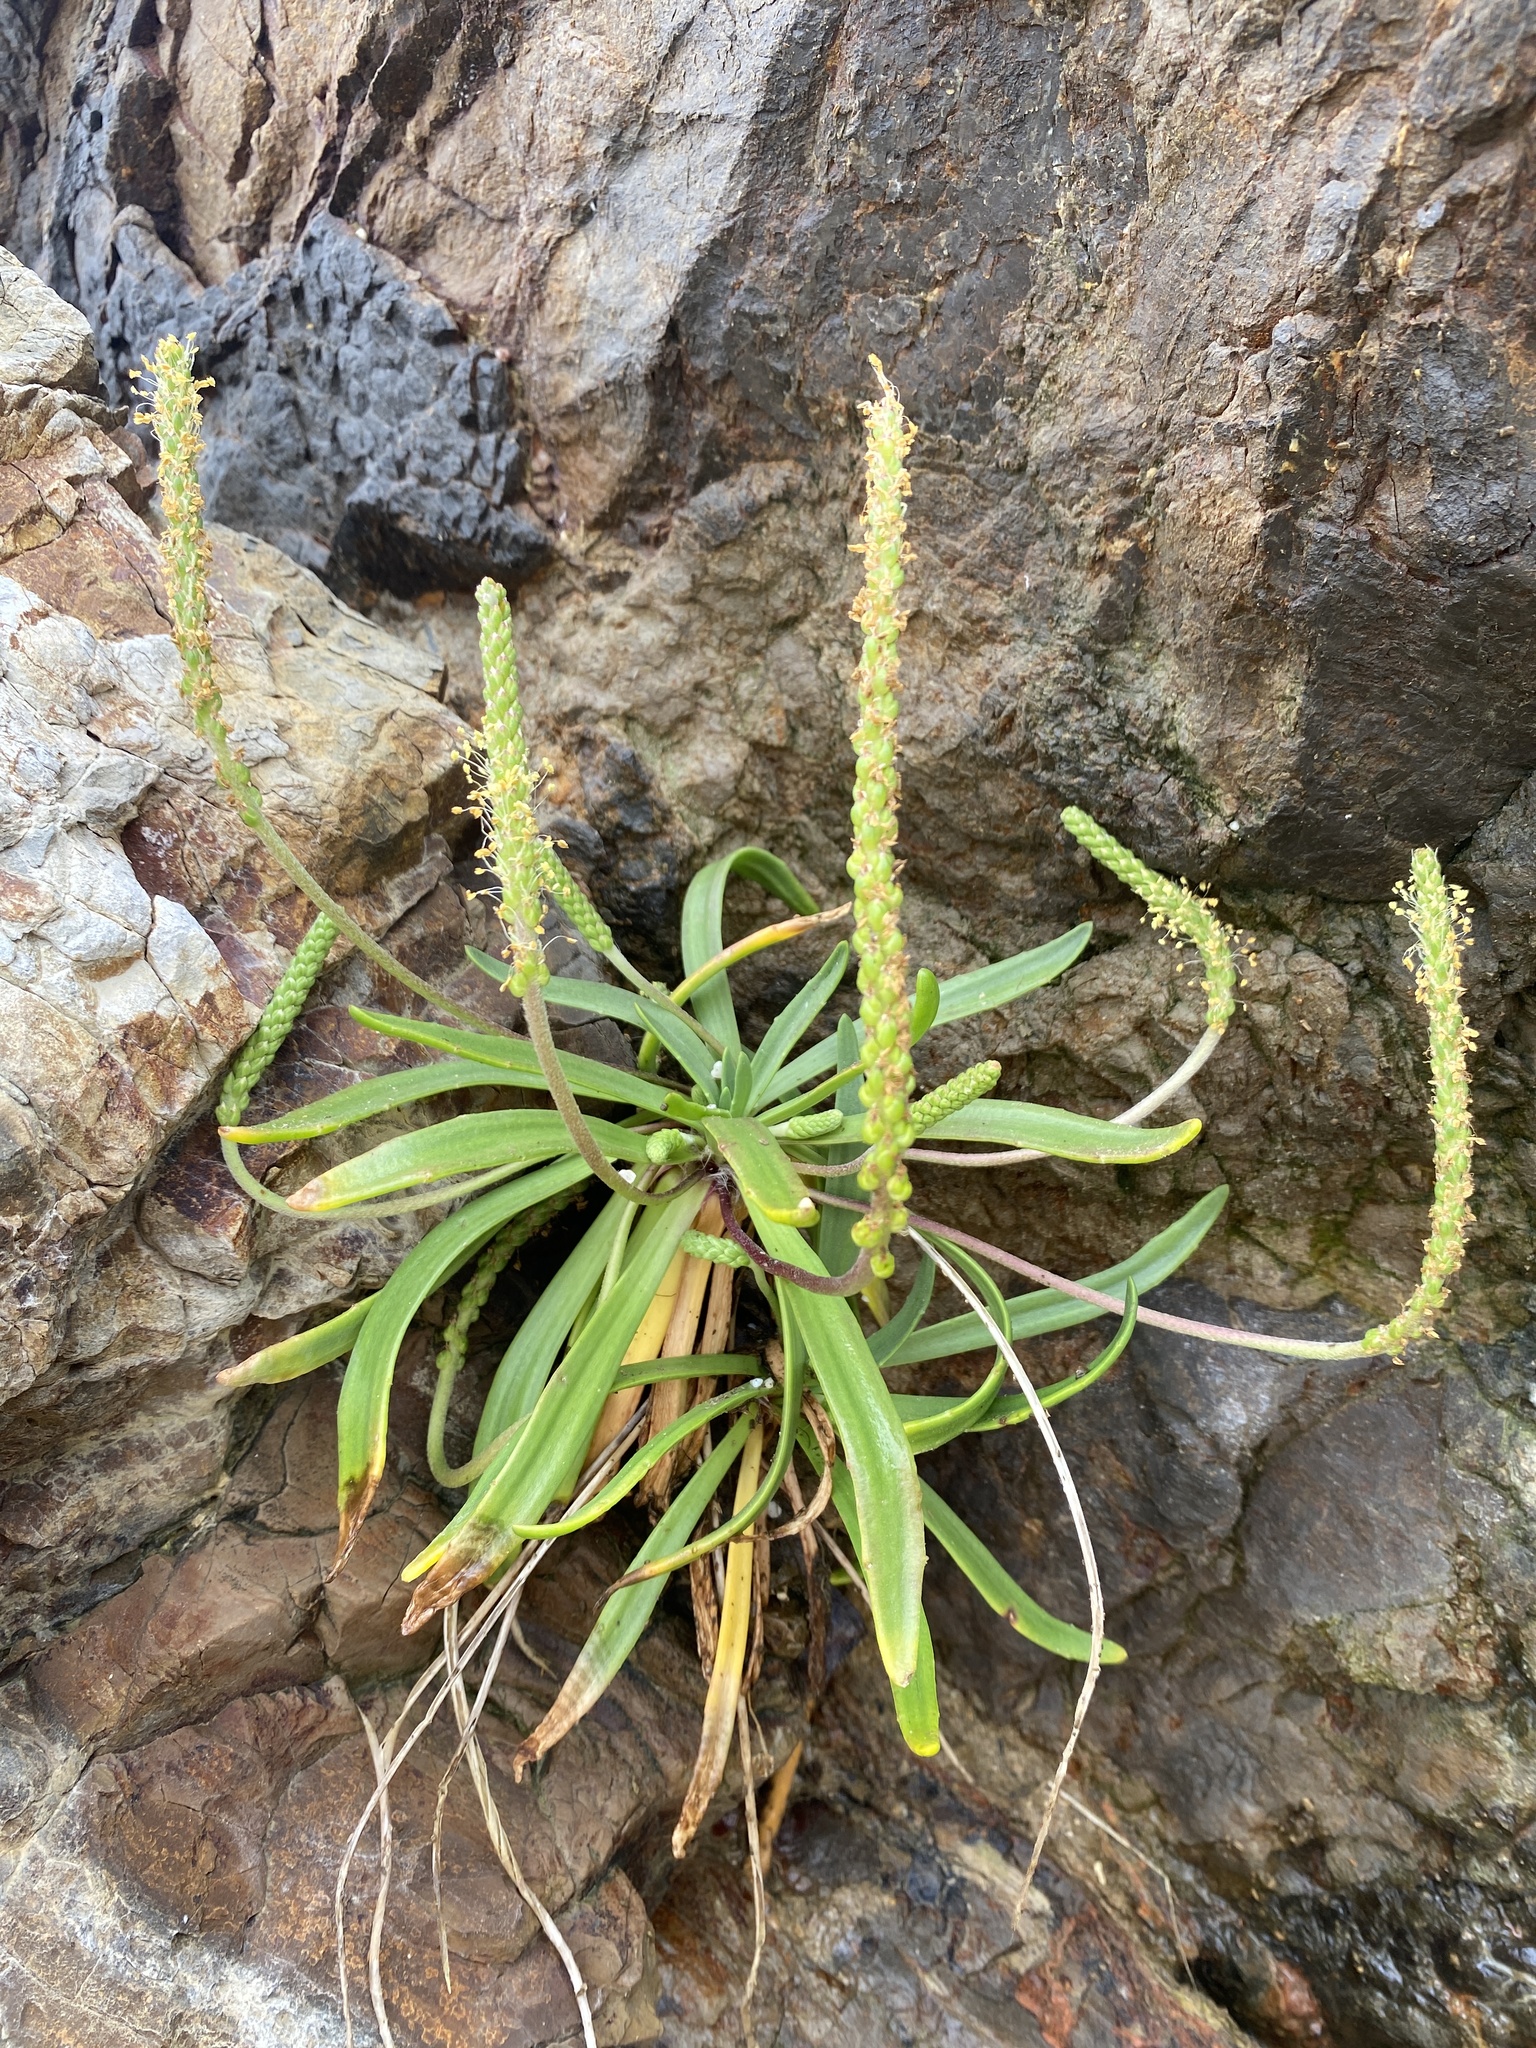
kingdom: Plantae
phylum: Tracheophyta
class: Magnoliopsida
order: Lamiales
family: Plantaginaceae
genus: Plantago
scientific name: Plantago maritima
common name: Sea plantain
